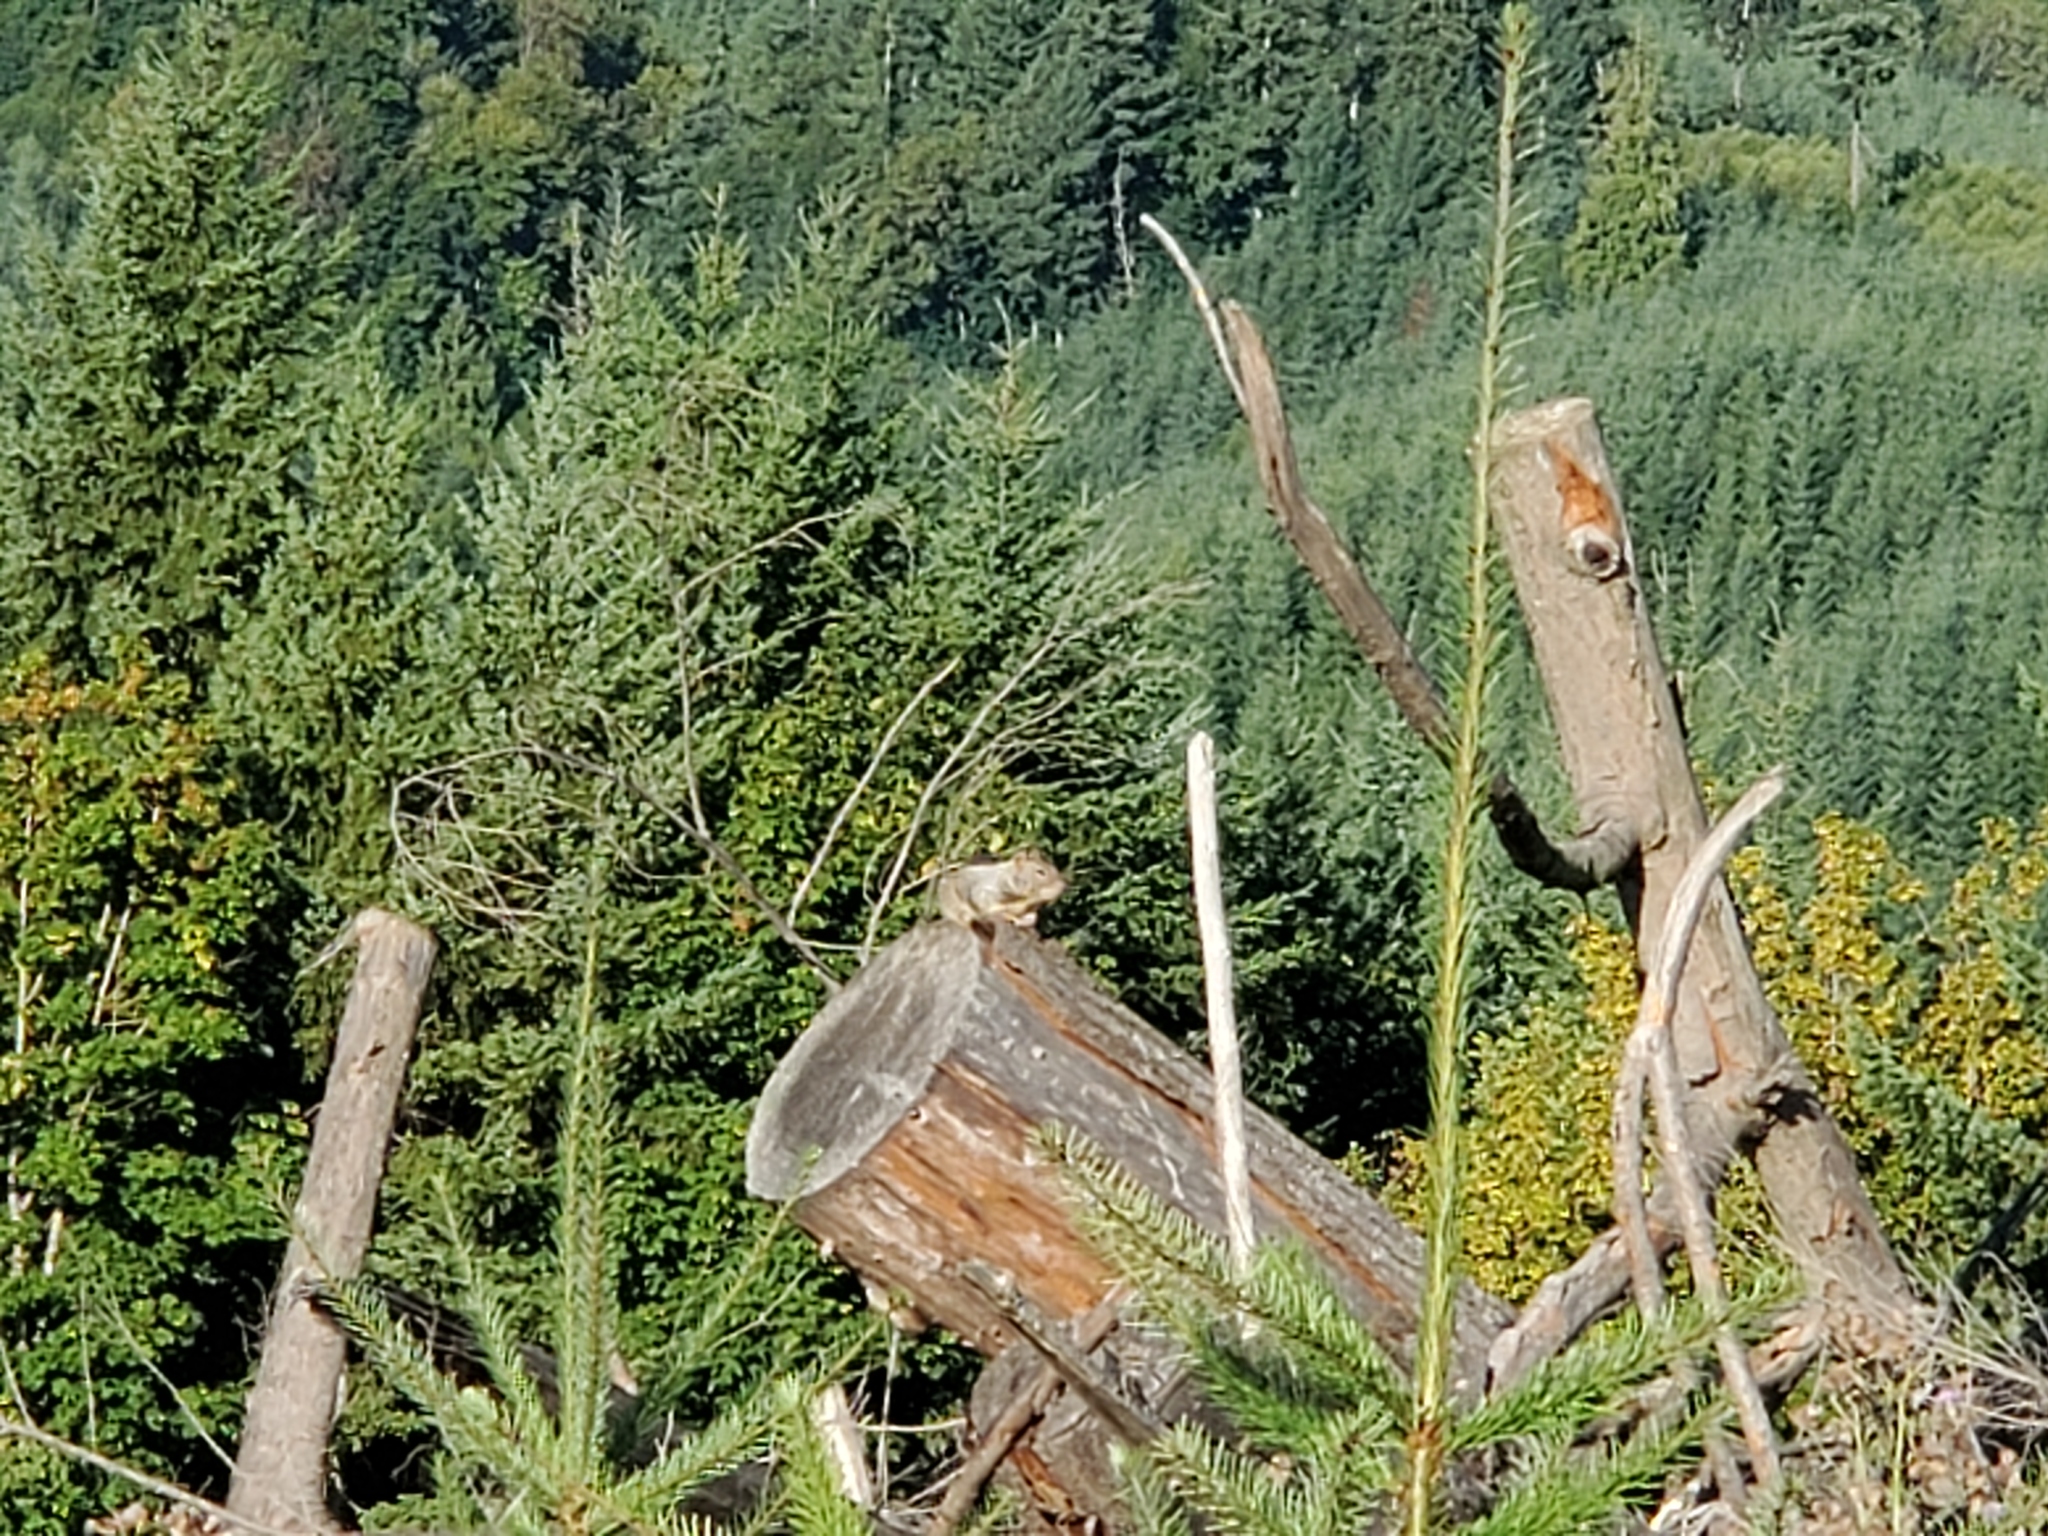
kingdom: Animalia
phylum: Chordata
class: Mammalia
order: Rodentia
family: Sciuridae
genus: Otospermophilus
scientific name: Otospermophilus beecheyi
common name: California ground squirrel
